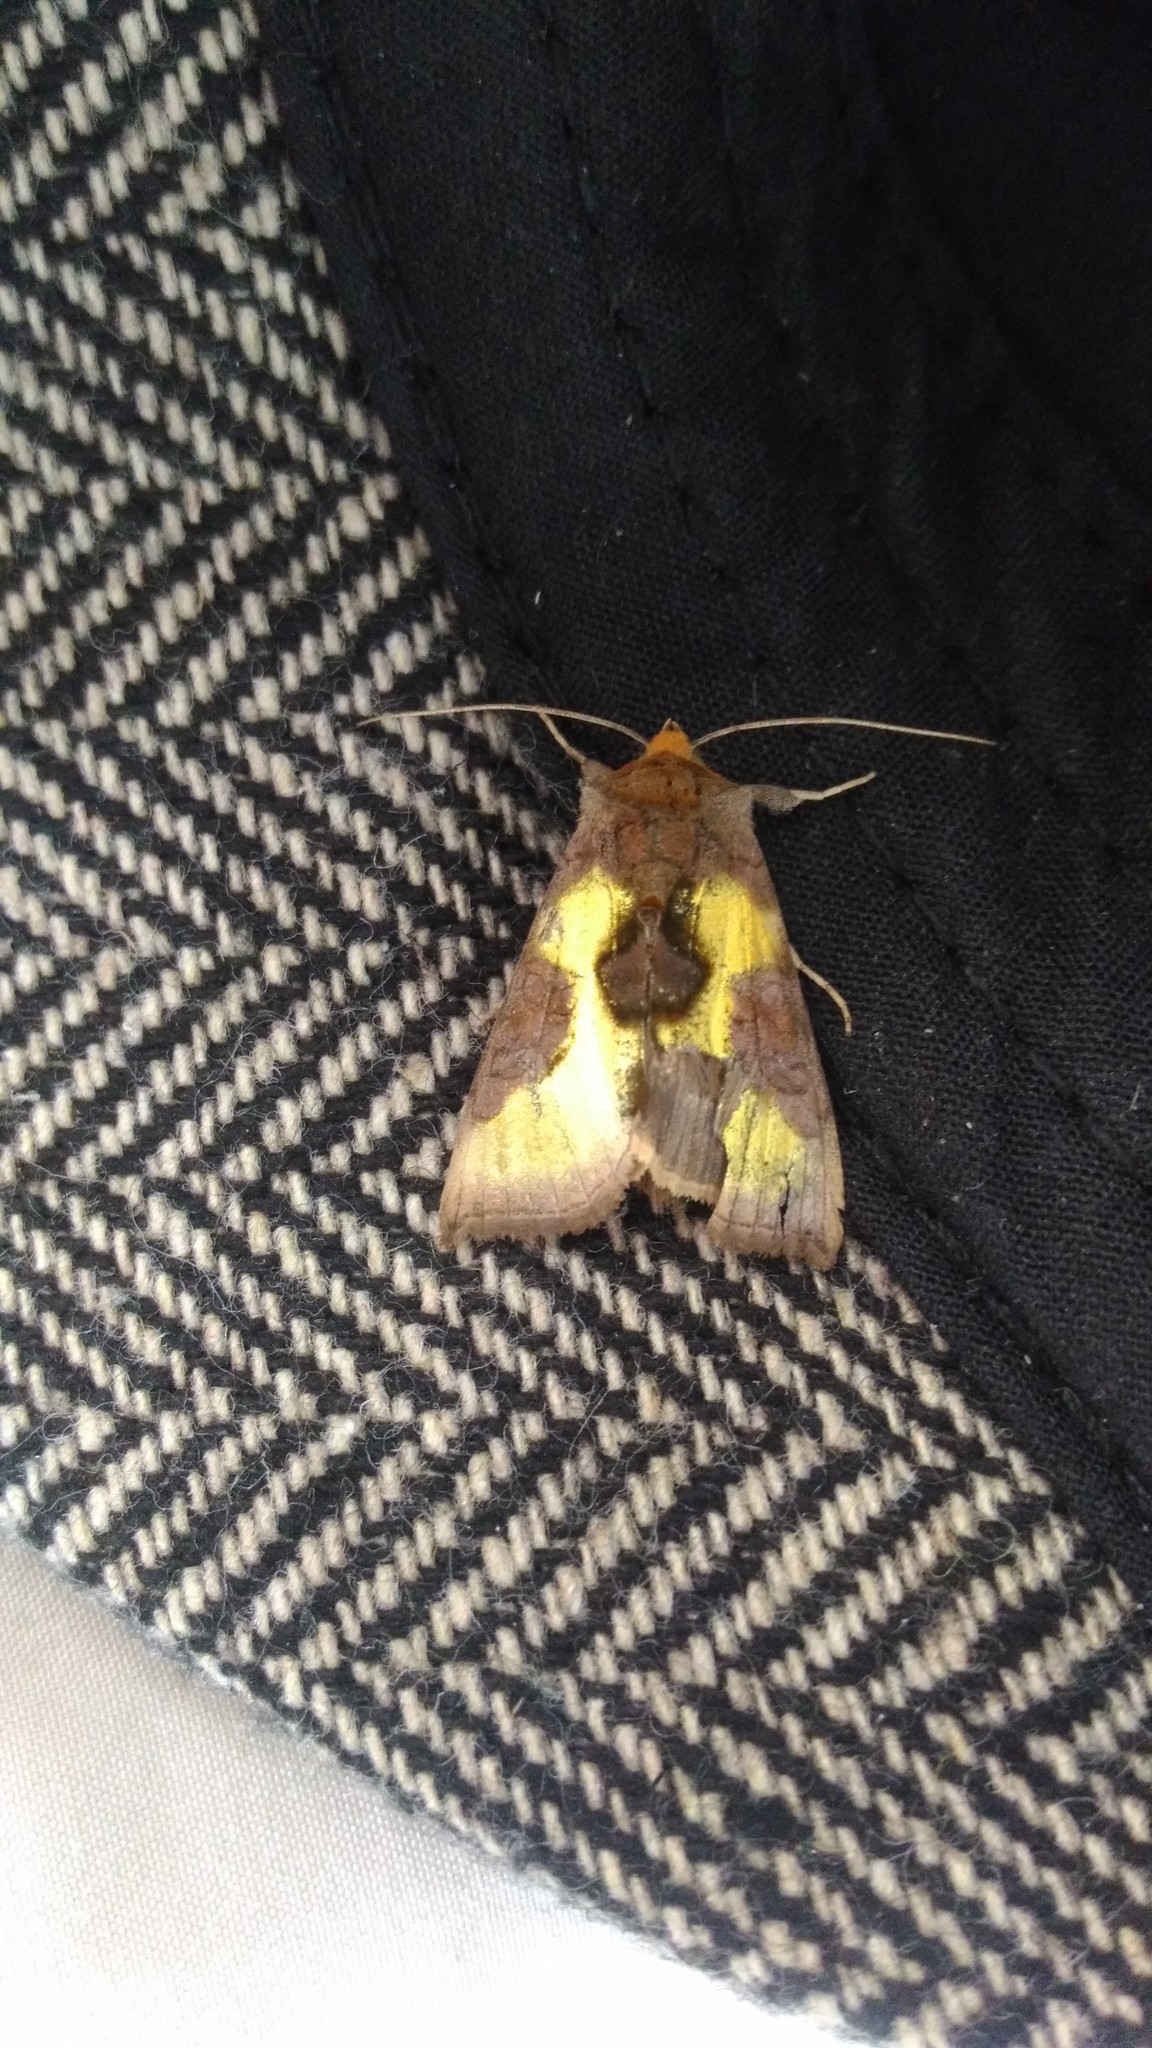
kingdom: Animalia
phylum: Arthropoda
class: Insecta
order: Lepidoptera
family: Noctuidae
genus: Diachrysia
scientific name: Diachrysia chrysitis
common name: Burnished brass
